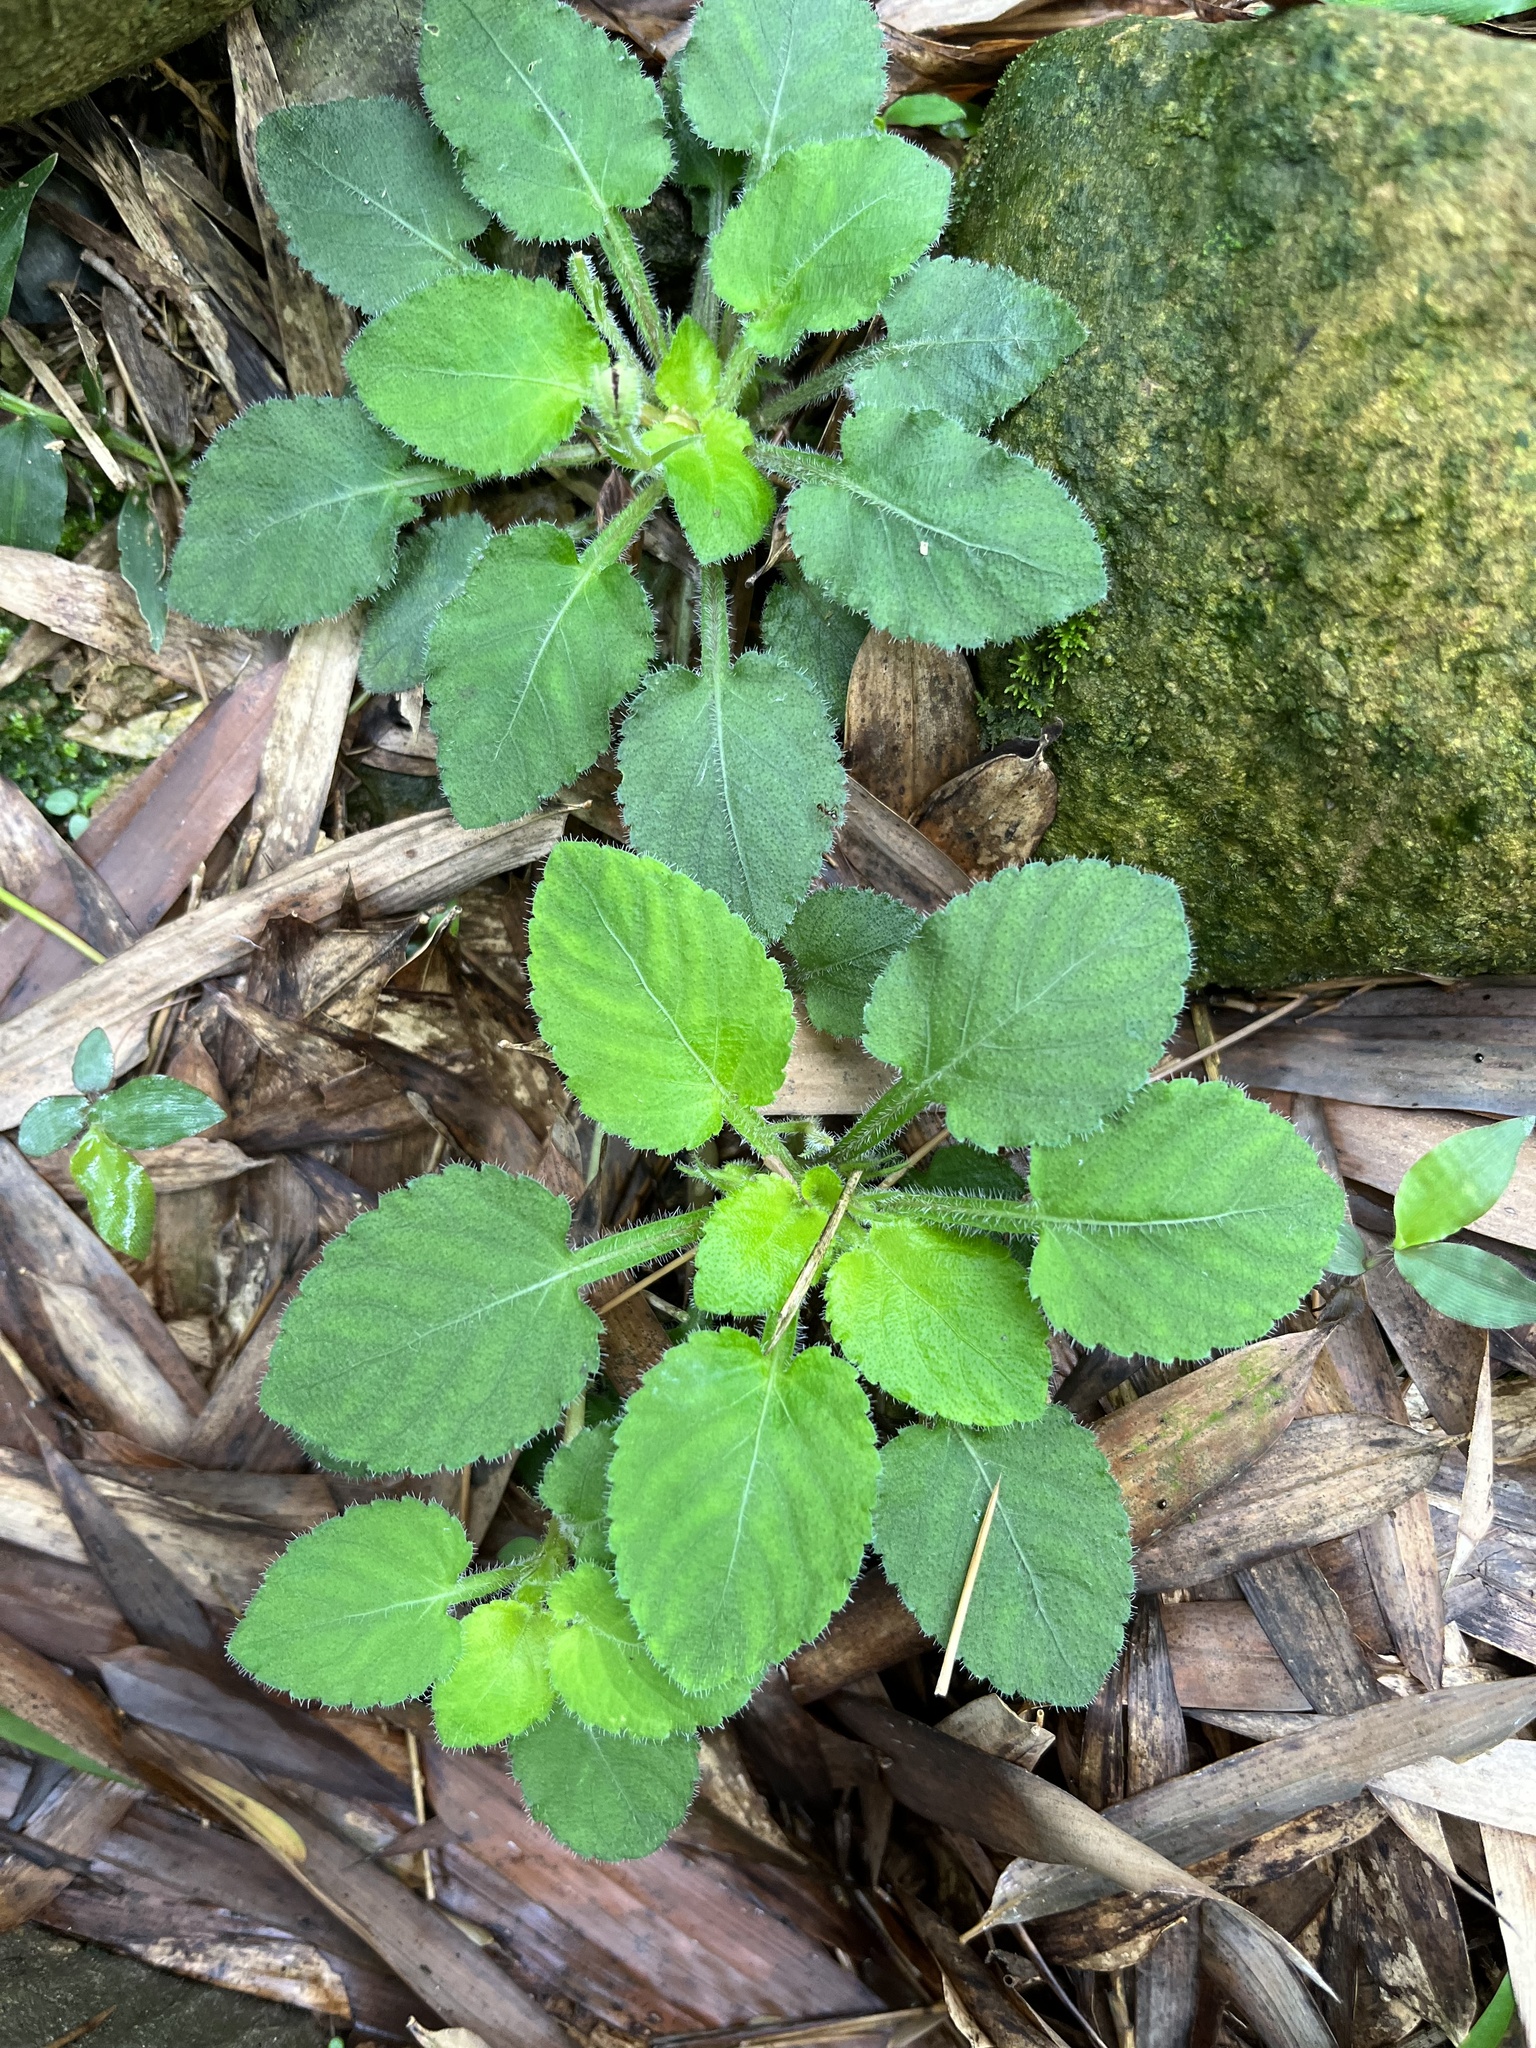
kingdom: Plantae
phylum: Tracheophyta
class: Magnoliopsida
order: Malpighiales
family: Violaceae
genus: Viola
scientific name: Viola diffusa
